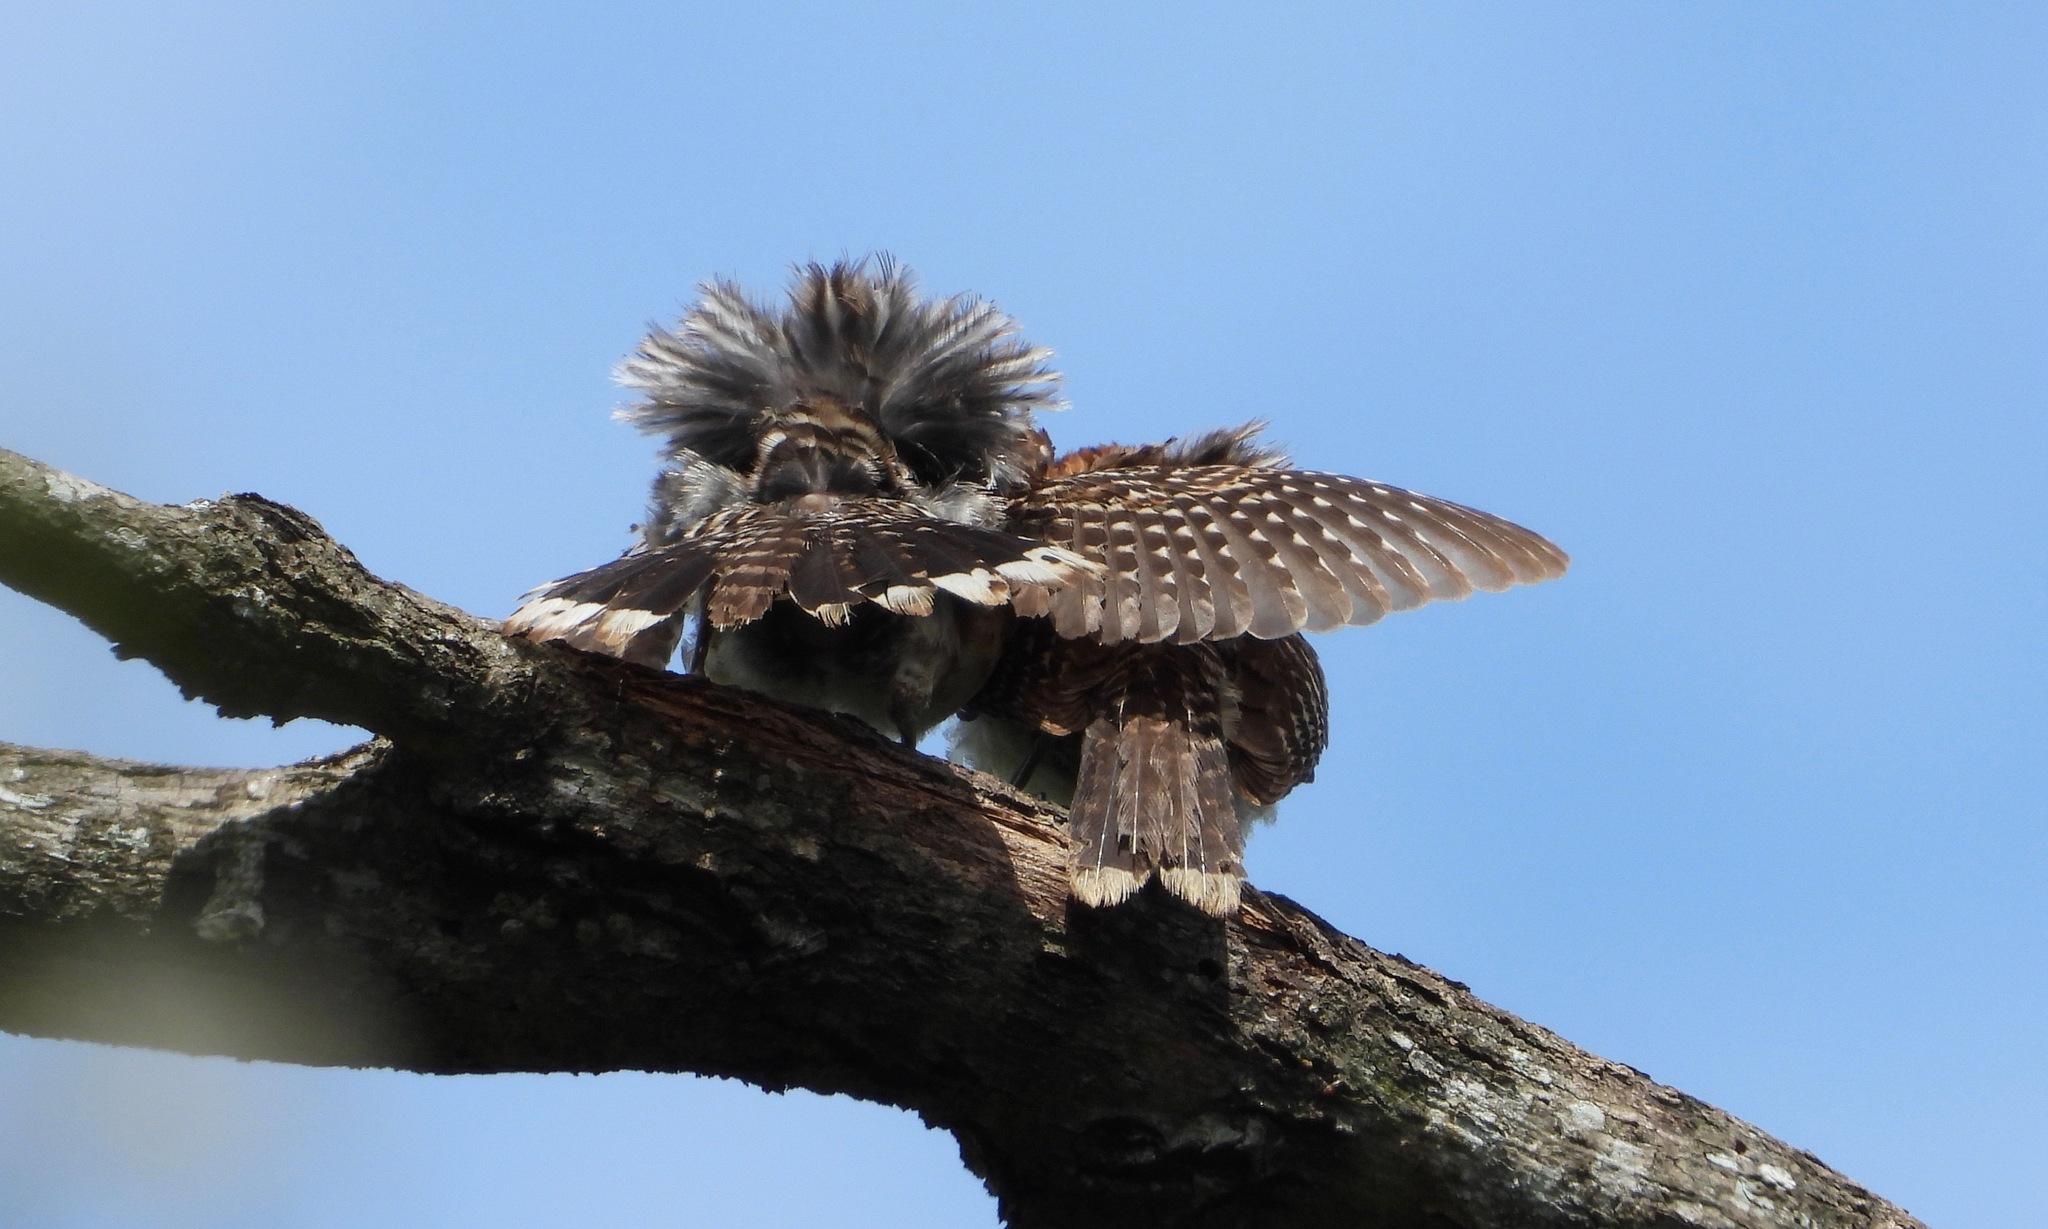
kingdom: Animalia
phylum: Chordata
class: Aves
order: Passeriformes
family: Troglodytidae
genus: Campylorhynchus
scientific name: Campylorhynchus rufinucha
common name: Rufous-naped wren
